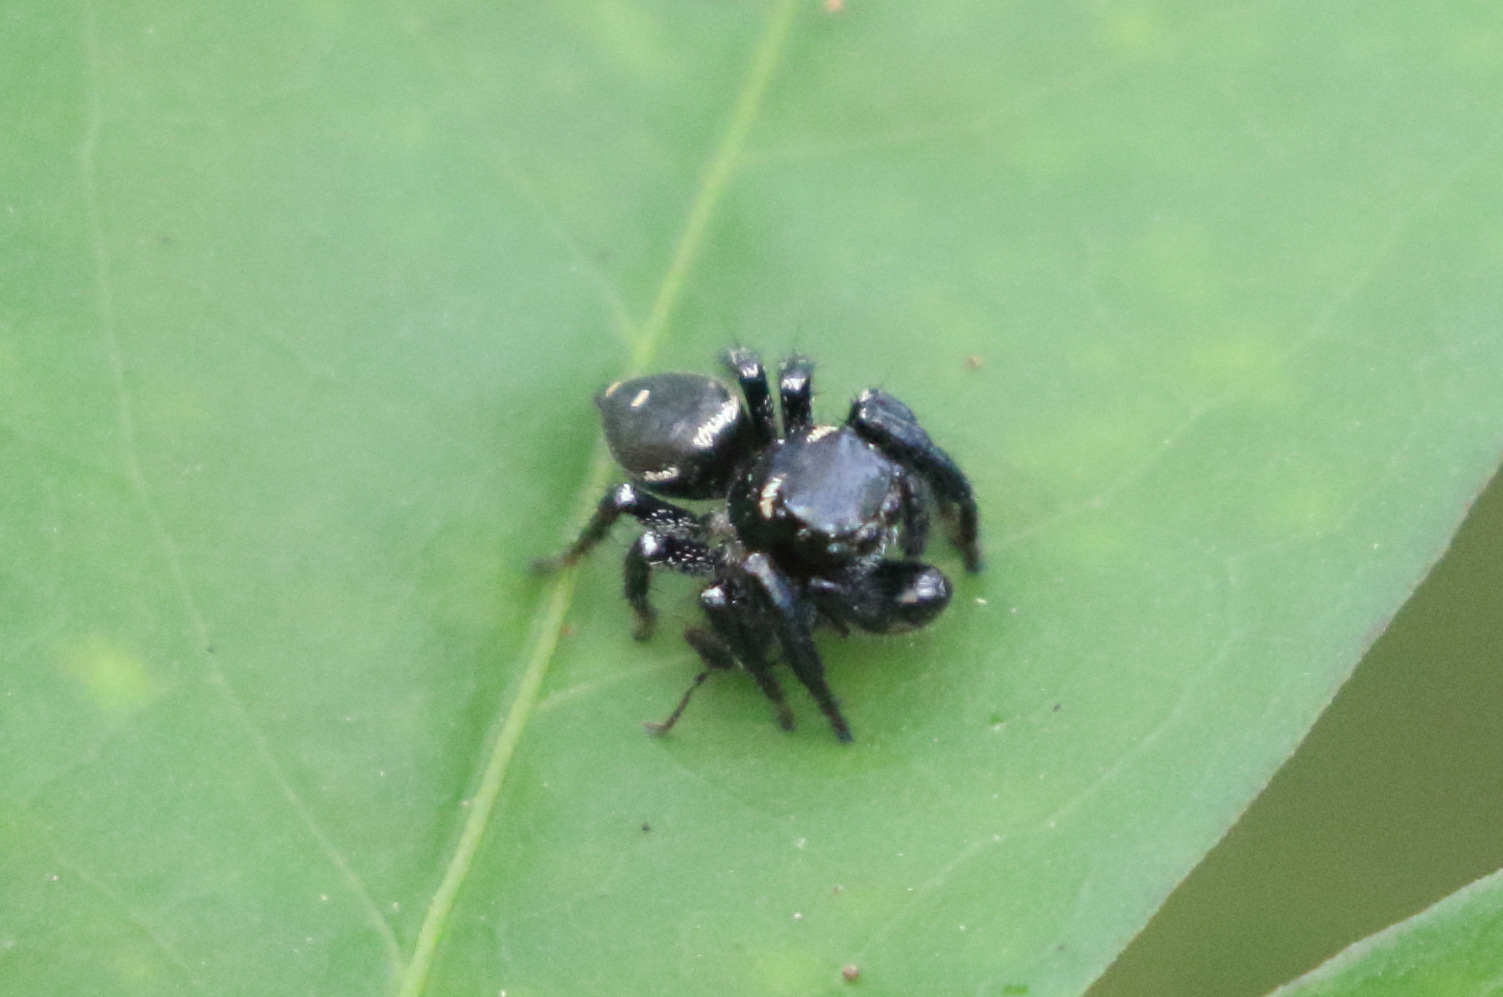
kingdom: Animalia
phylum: Arthropoda
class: Arachnida
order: Araneae
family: Salticidae
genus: Zenodorus
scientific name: Zenodorus orbiculatus
